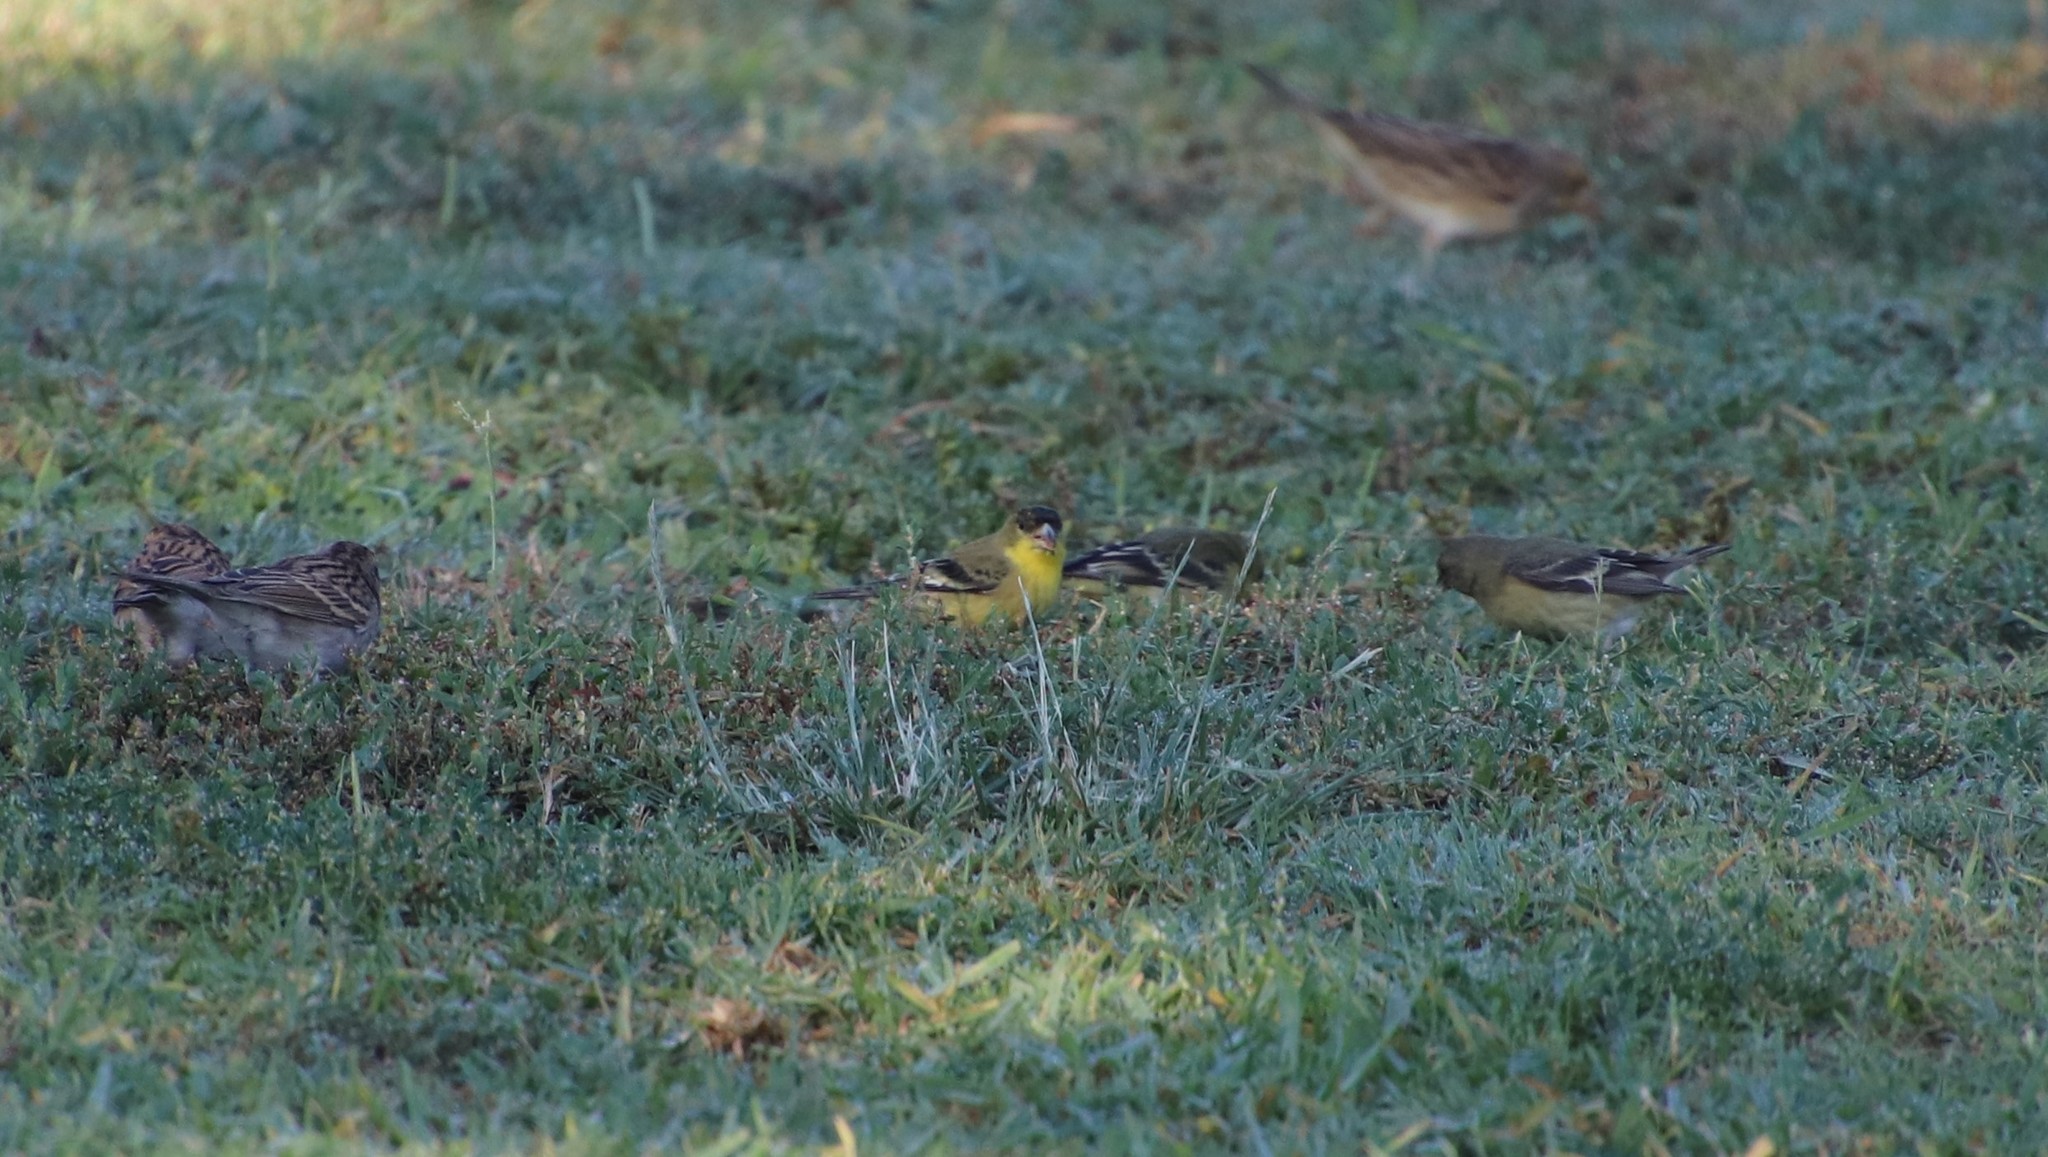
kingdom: Animalia
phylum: Chordata
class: Aves
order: Passeriformes
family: Fringillidae
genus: Spinus
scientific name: Spinus psaltria
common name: Lesser goldfinch
